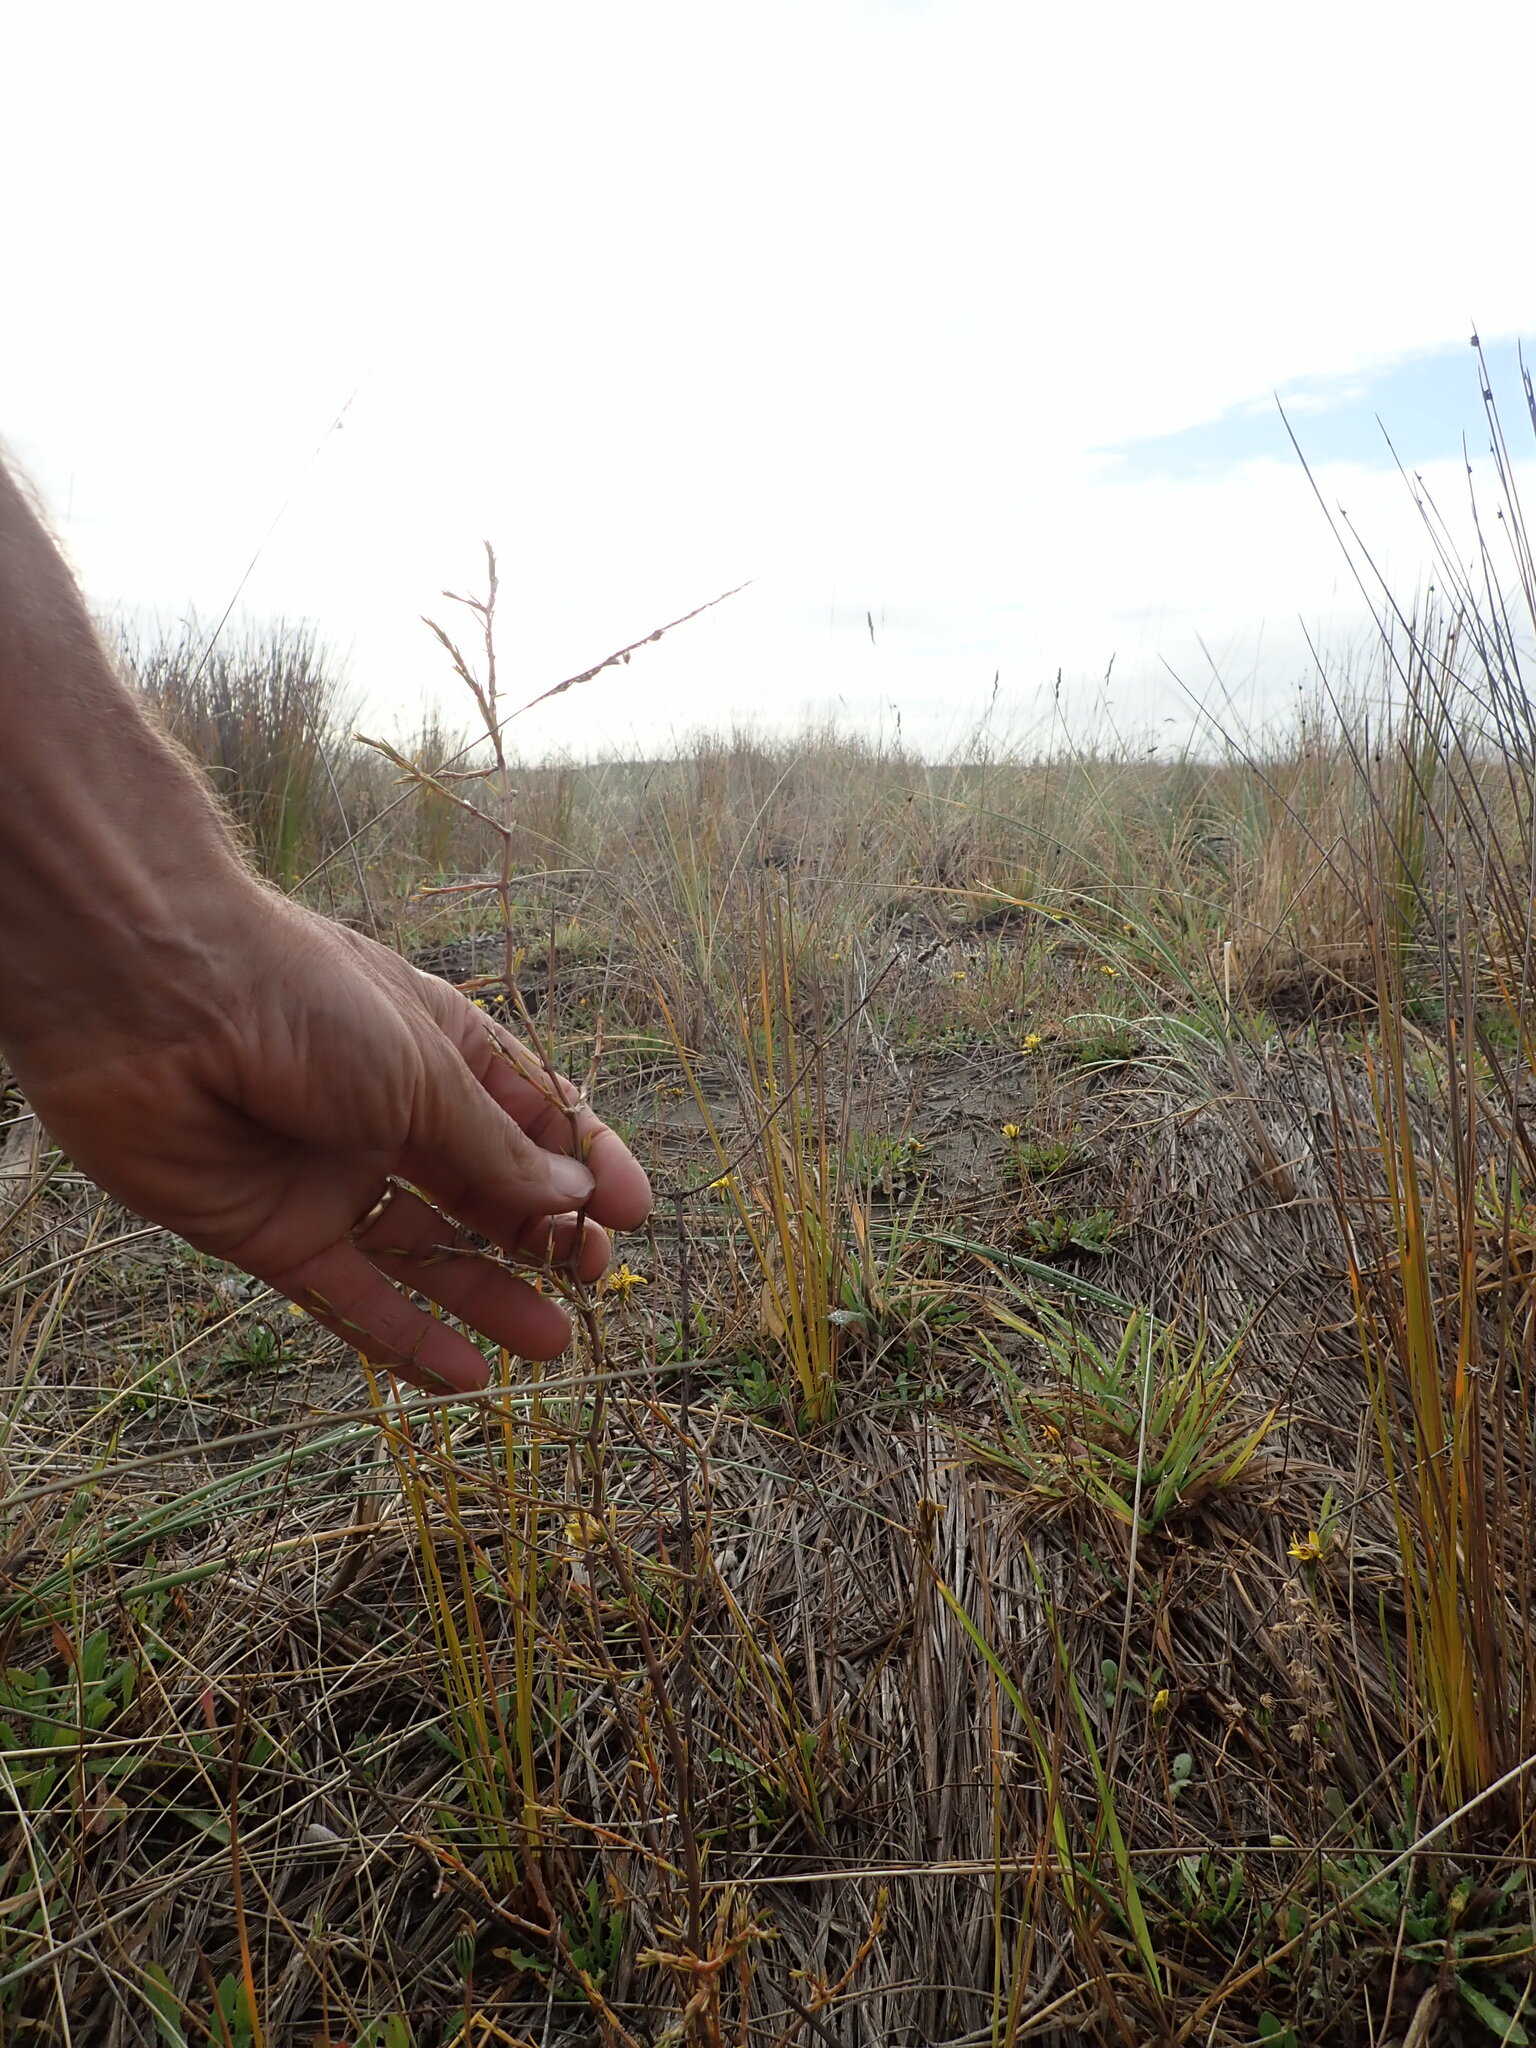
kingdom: Plantae
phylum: Tracheophyta
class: Magnoliopsida
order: Gentianales
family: Rubiaceae
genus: Coprosma
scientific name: Coprosma acerosa
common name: Sand coprosma
